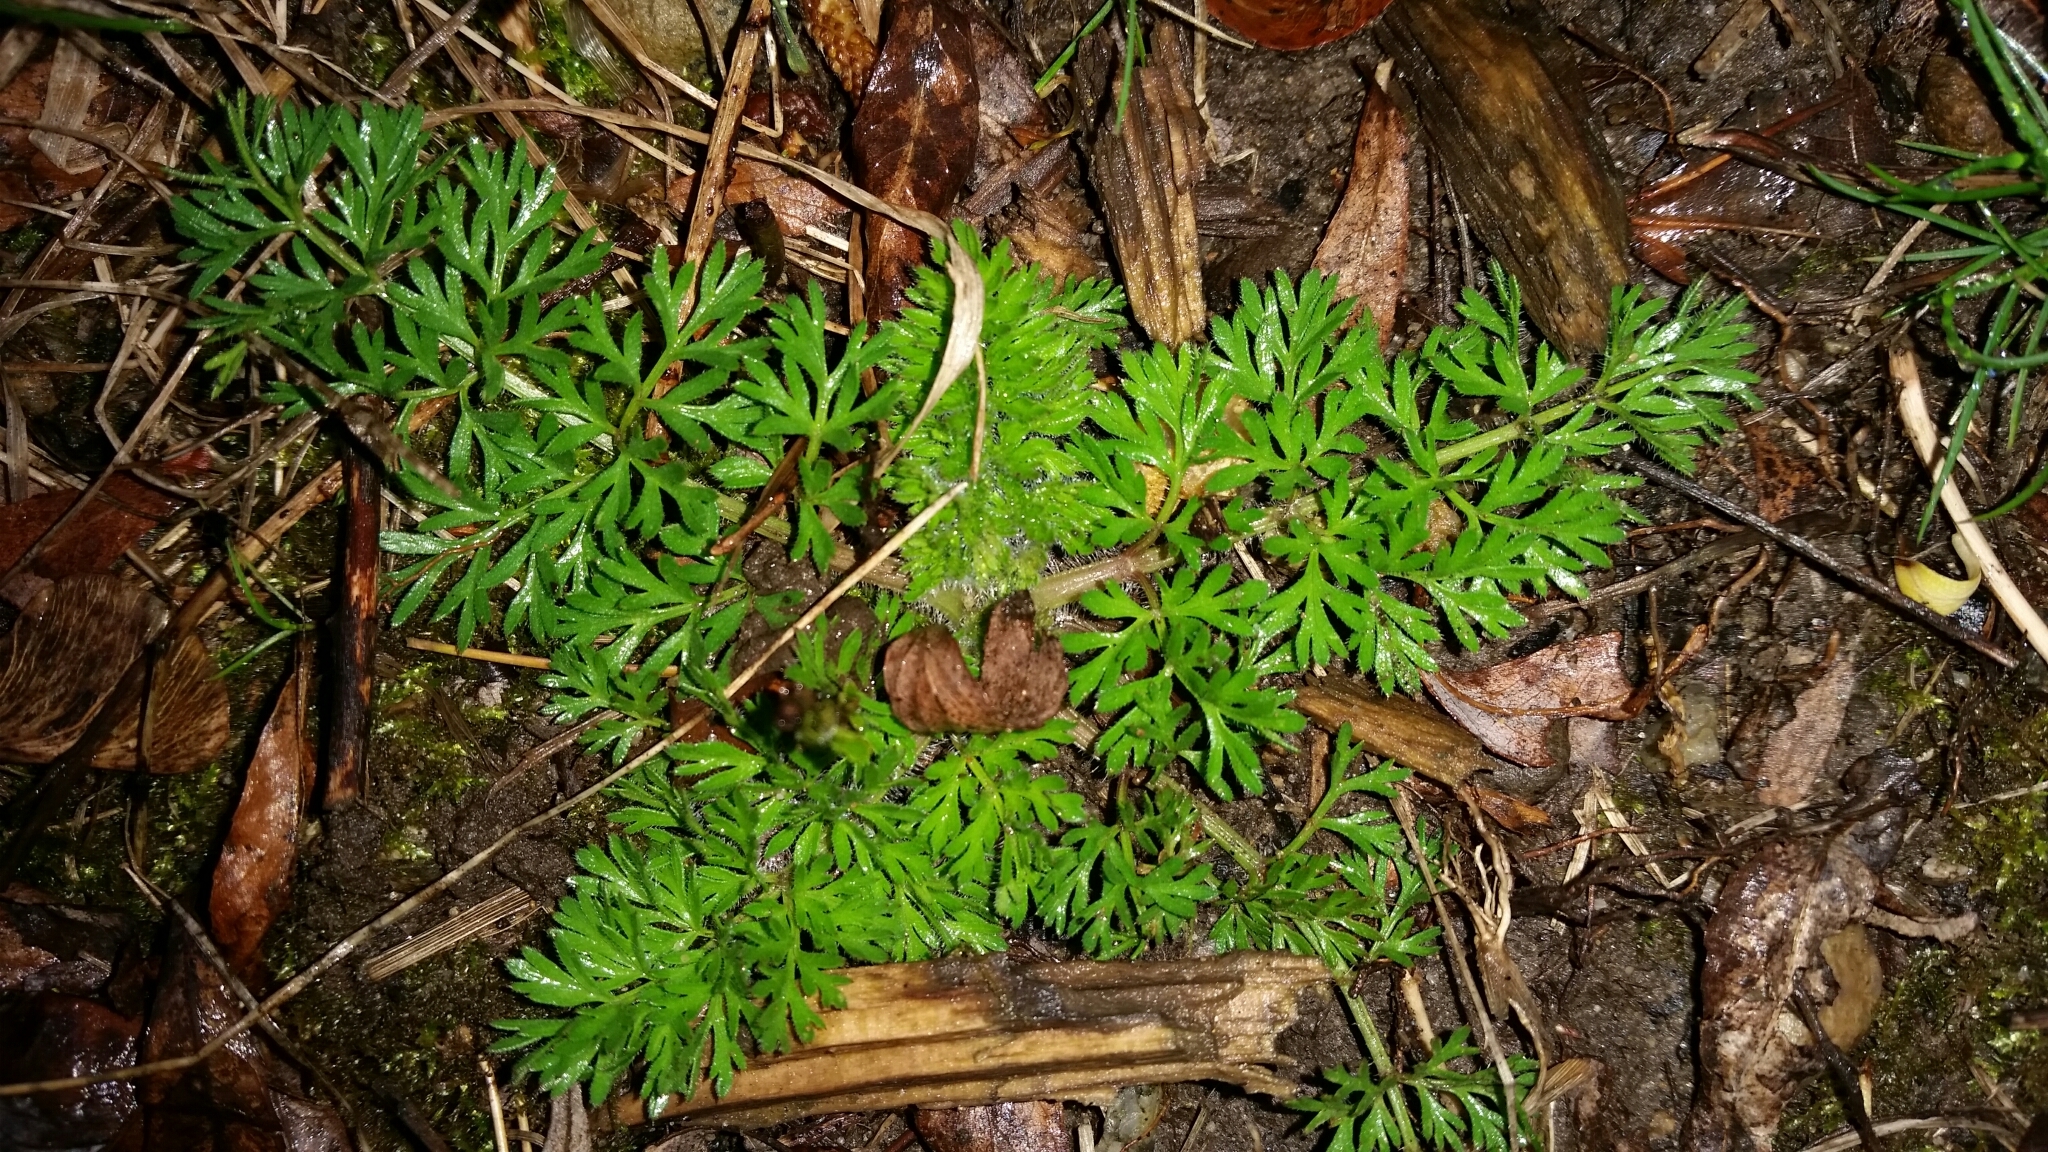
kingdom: Plantae
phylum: Tracheophyta
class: Magnoliopsida
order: Apiales
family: Apiaceae
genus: Daucus
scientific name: Daucus carota
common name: Wild carrot
